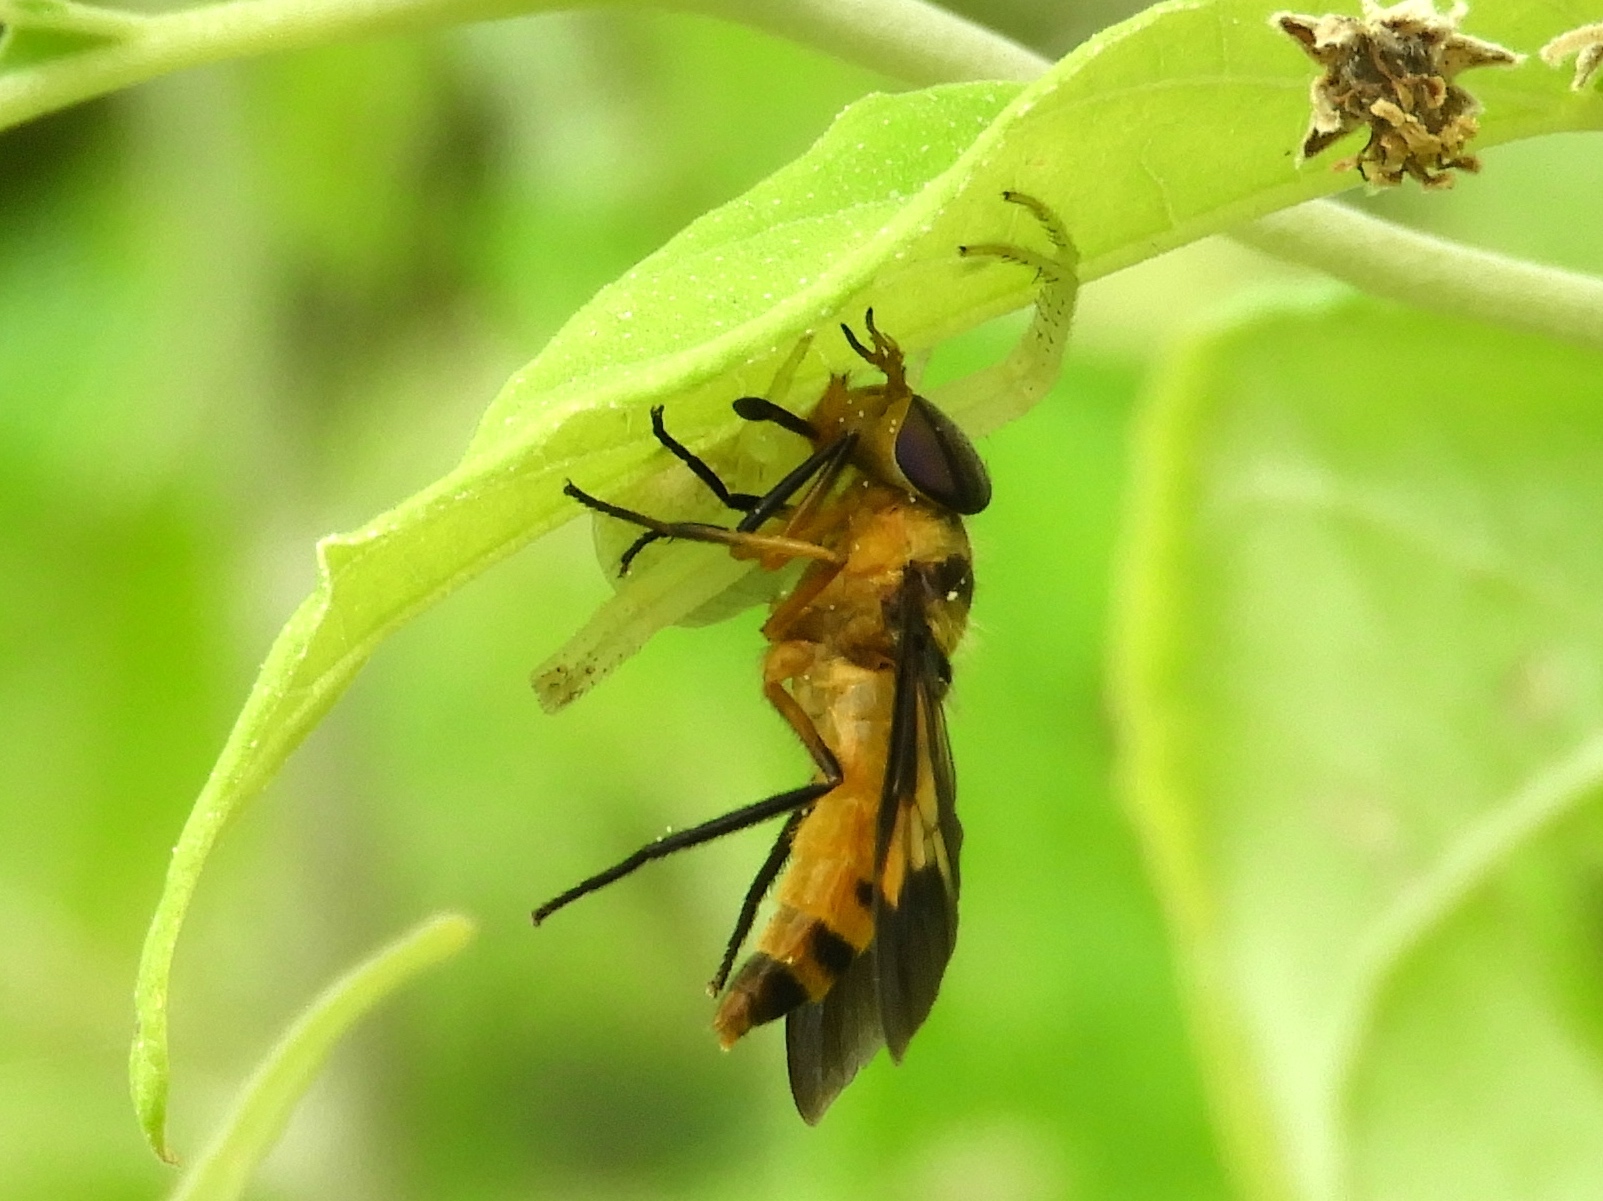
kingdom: Animalia
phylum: Arthropoda
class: Insecta
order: Diptera
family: Tabanidae
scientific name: Tabanidae
